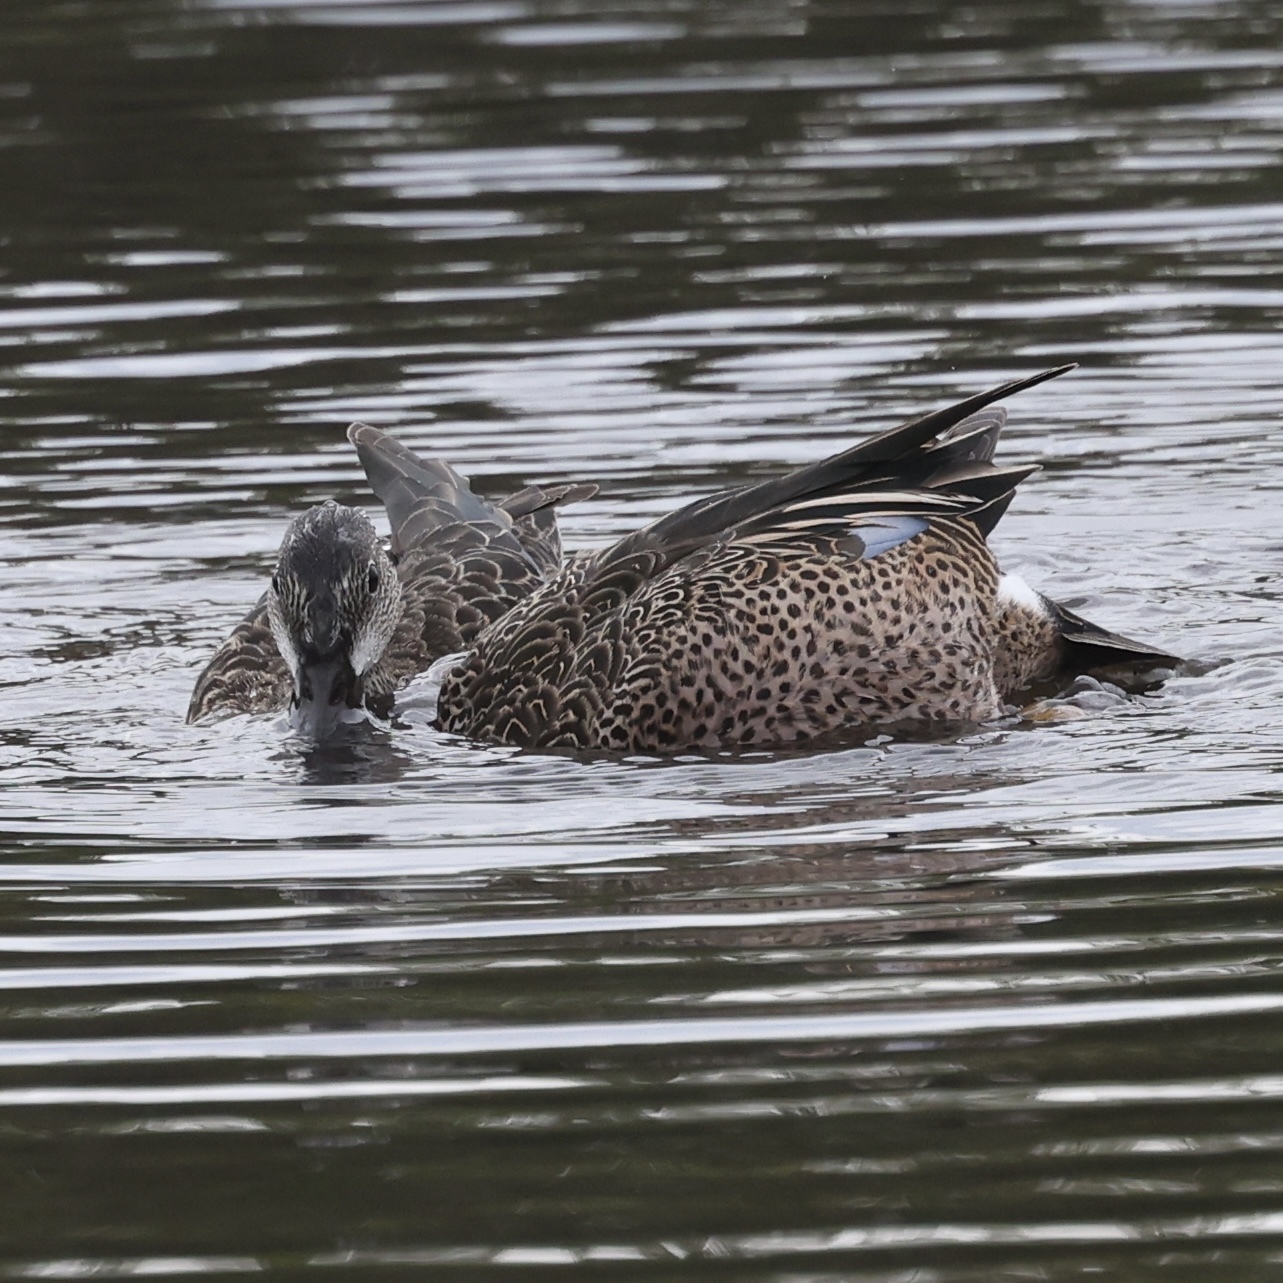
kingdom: Animalia
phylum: Chordata
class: Aves
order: Anseriformes
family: Anatidae
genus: Spatula
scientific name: Spatula discors
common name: Blue-winged teal
